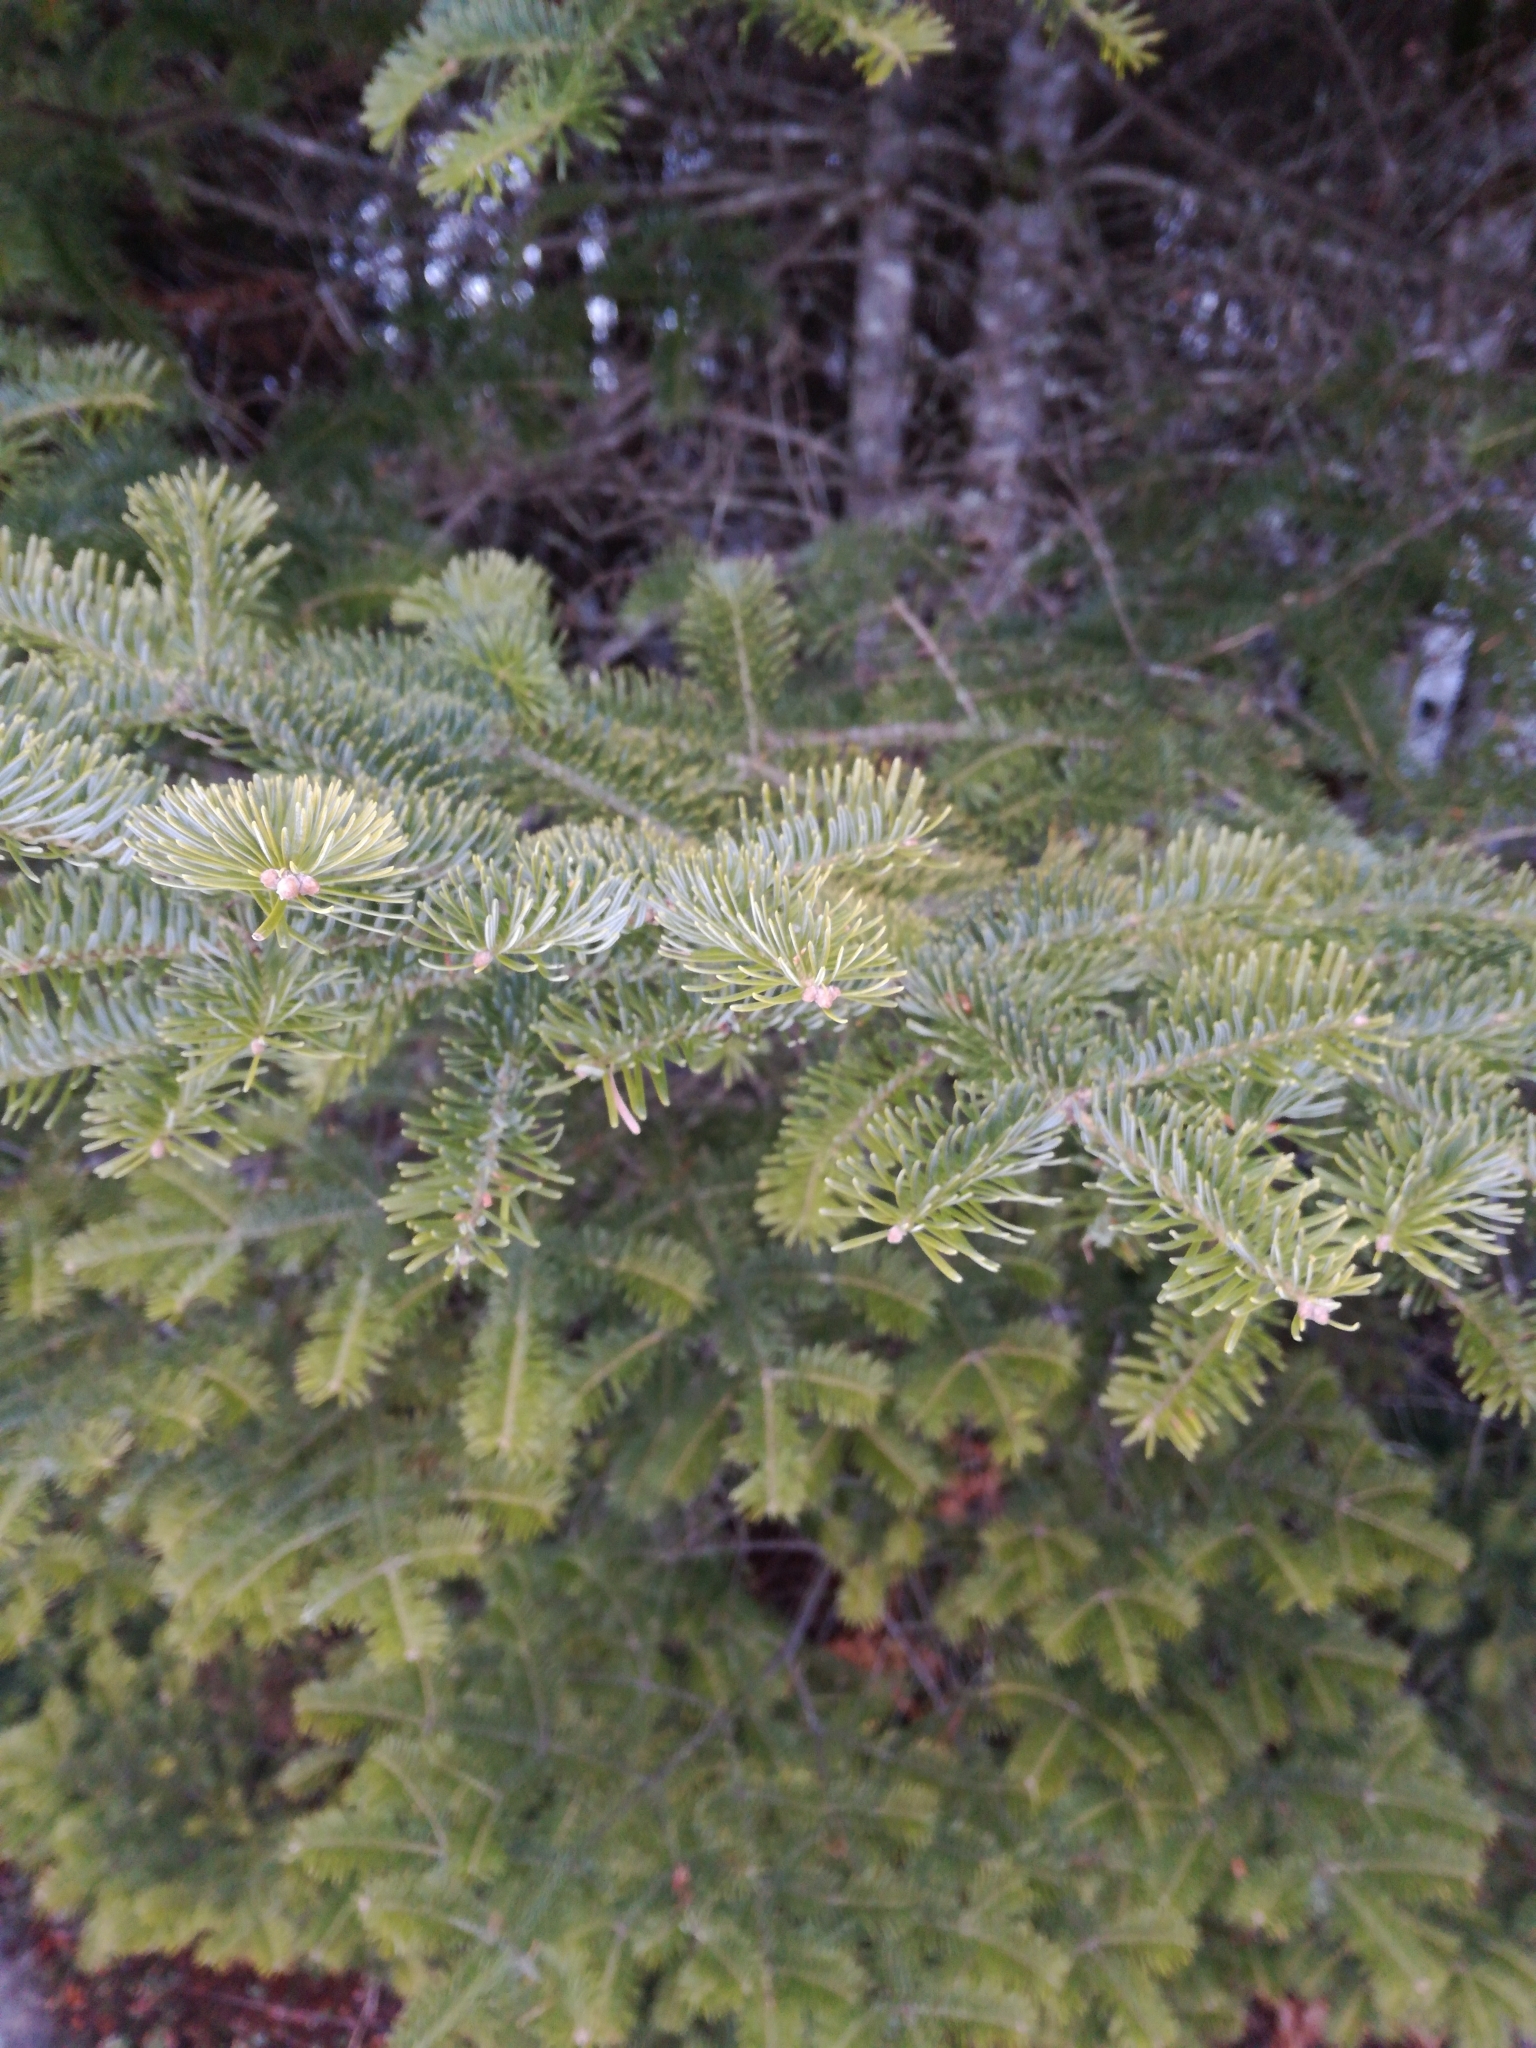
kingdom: Plantae
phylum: Tracheophyta
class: Pinopsida
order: Pinales
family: Pinaceae
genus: Abies
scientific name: Abies balsamea
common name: Balsam fir
